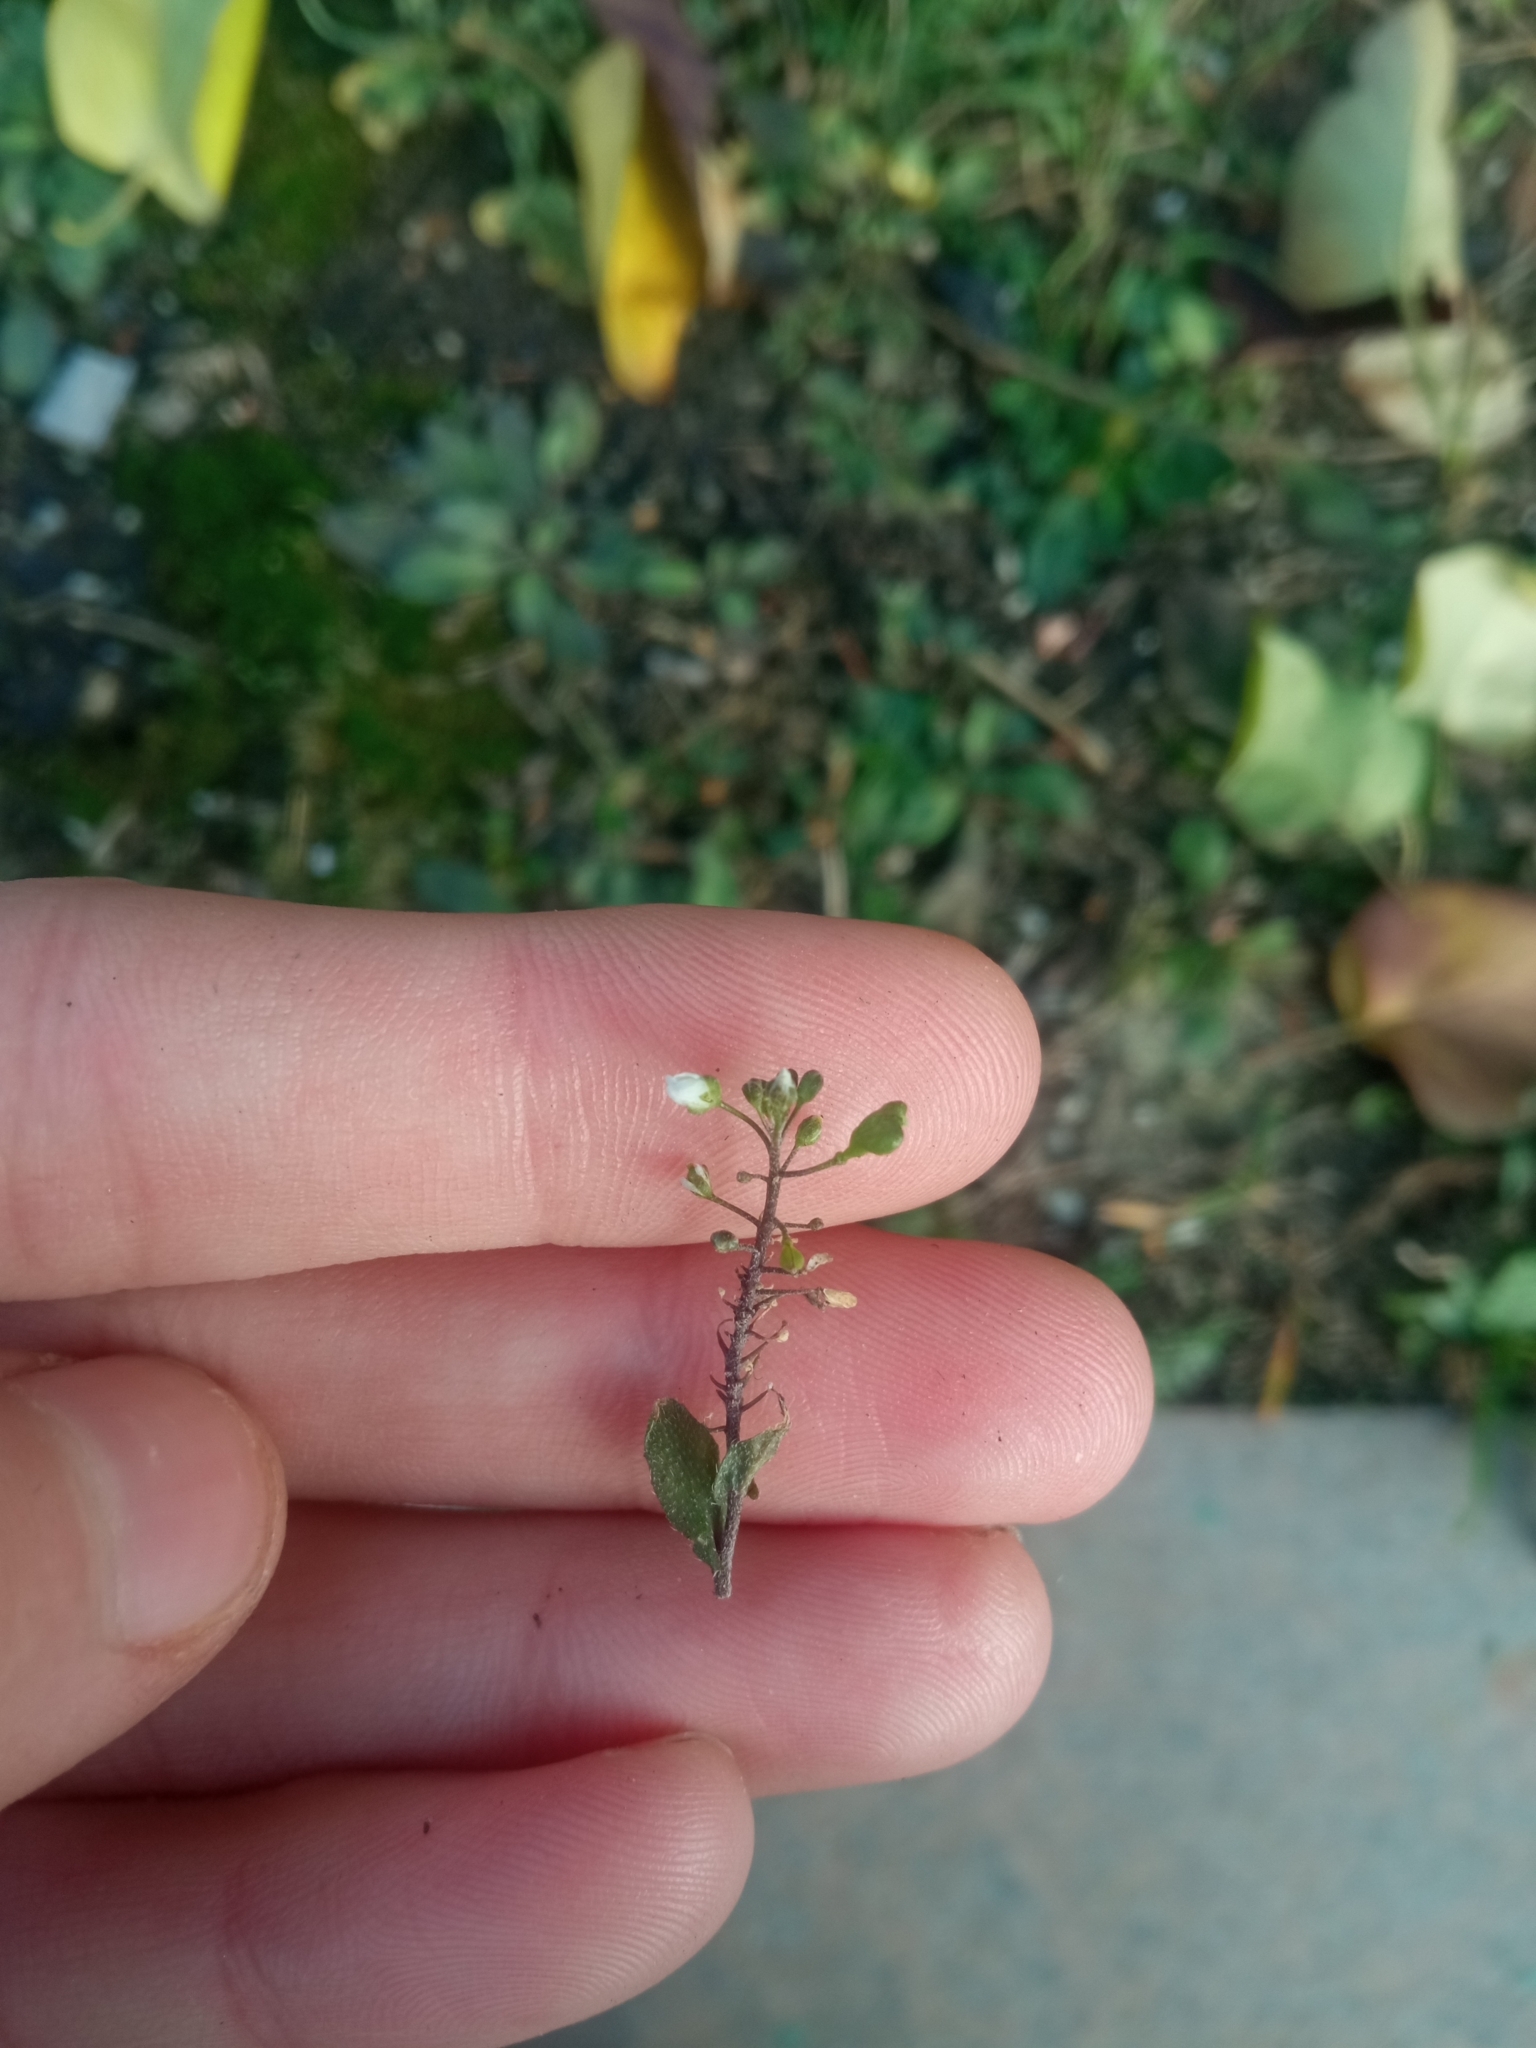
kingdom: Plantae
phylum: Tracheophyta
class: Magnoliopsida
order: Brassicales
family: Brassicaceae
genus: Capsella
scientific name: Capsella bursa-pastoris
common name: Shepherd's purse
